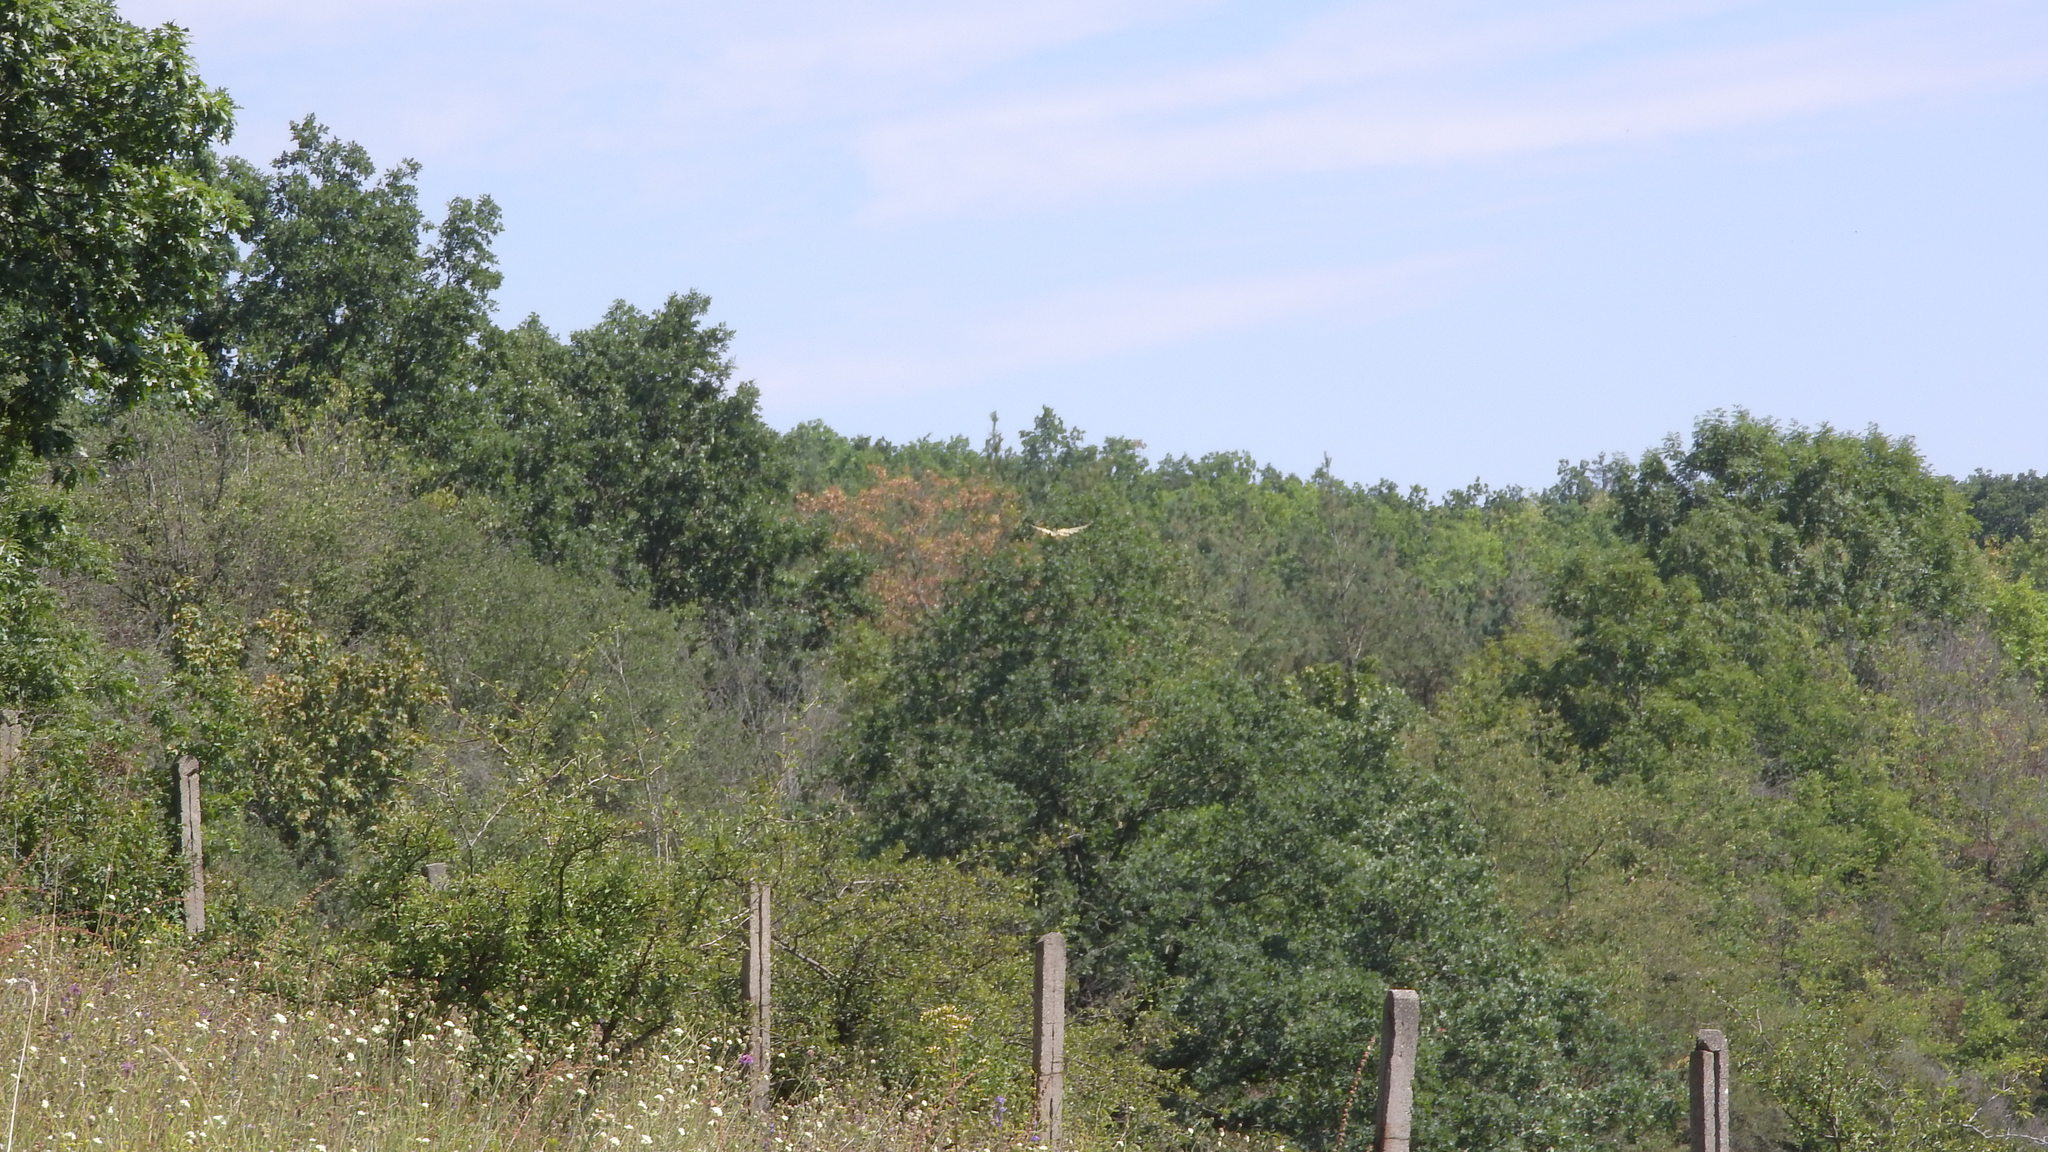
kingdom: Animalia
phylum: Arthropoda
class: Insecta
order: Lepidoptera
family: Papilionidae
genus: Iphiclides
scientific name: Iphiclides podalirius
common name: Scarce swallowtail
